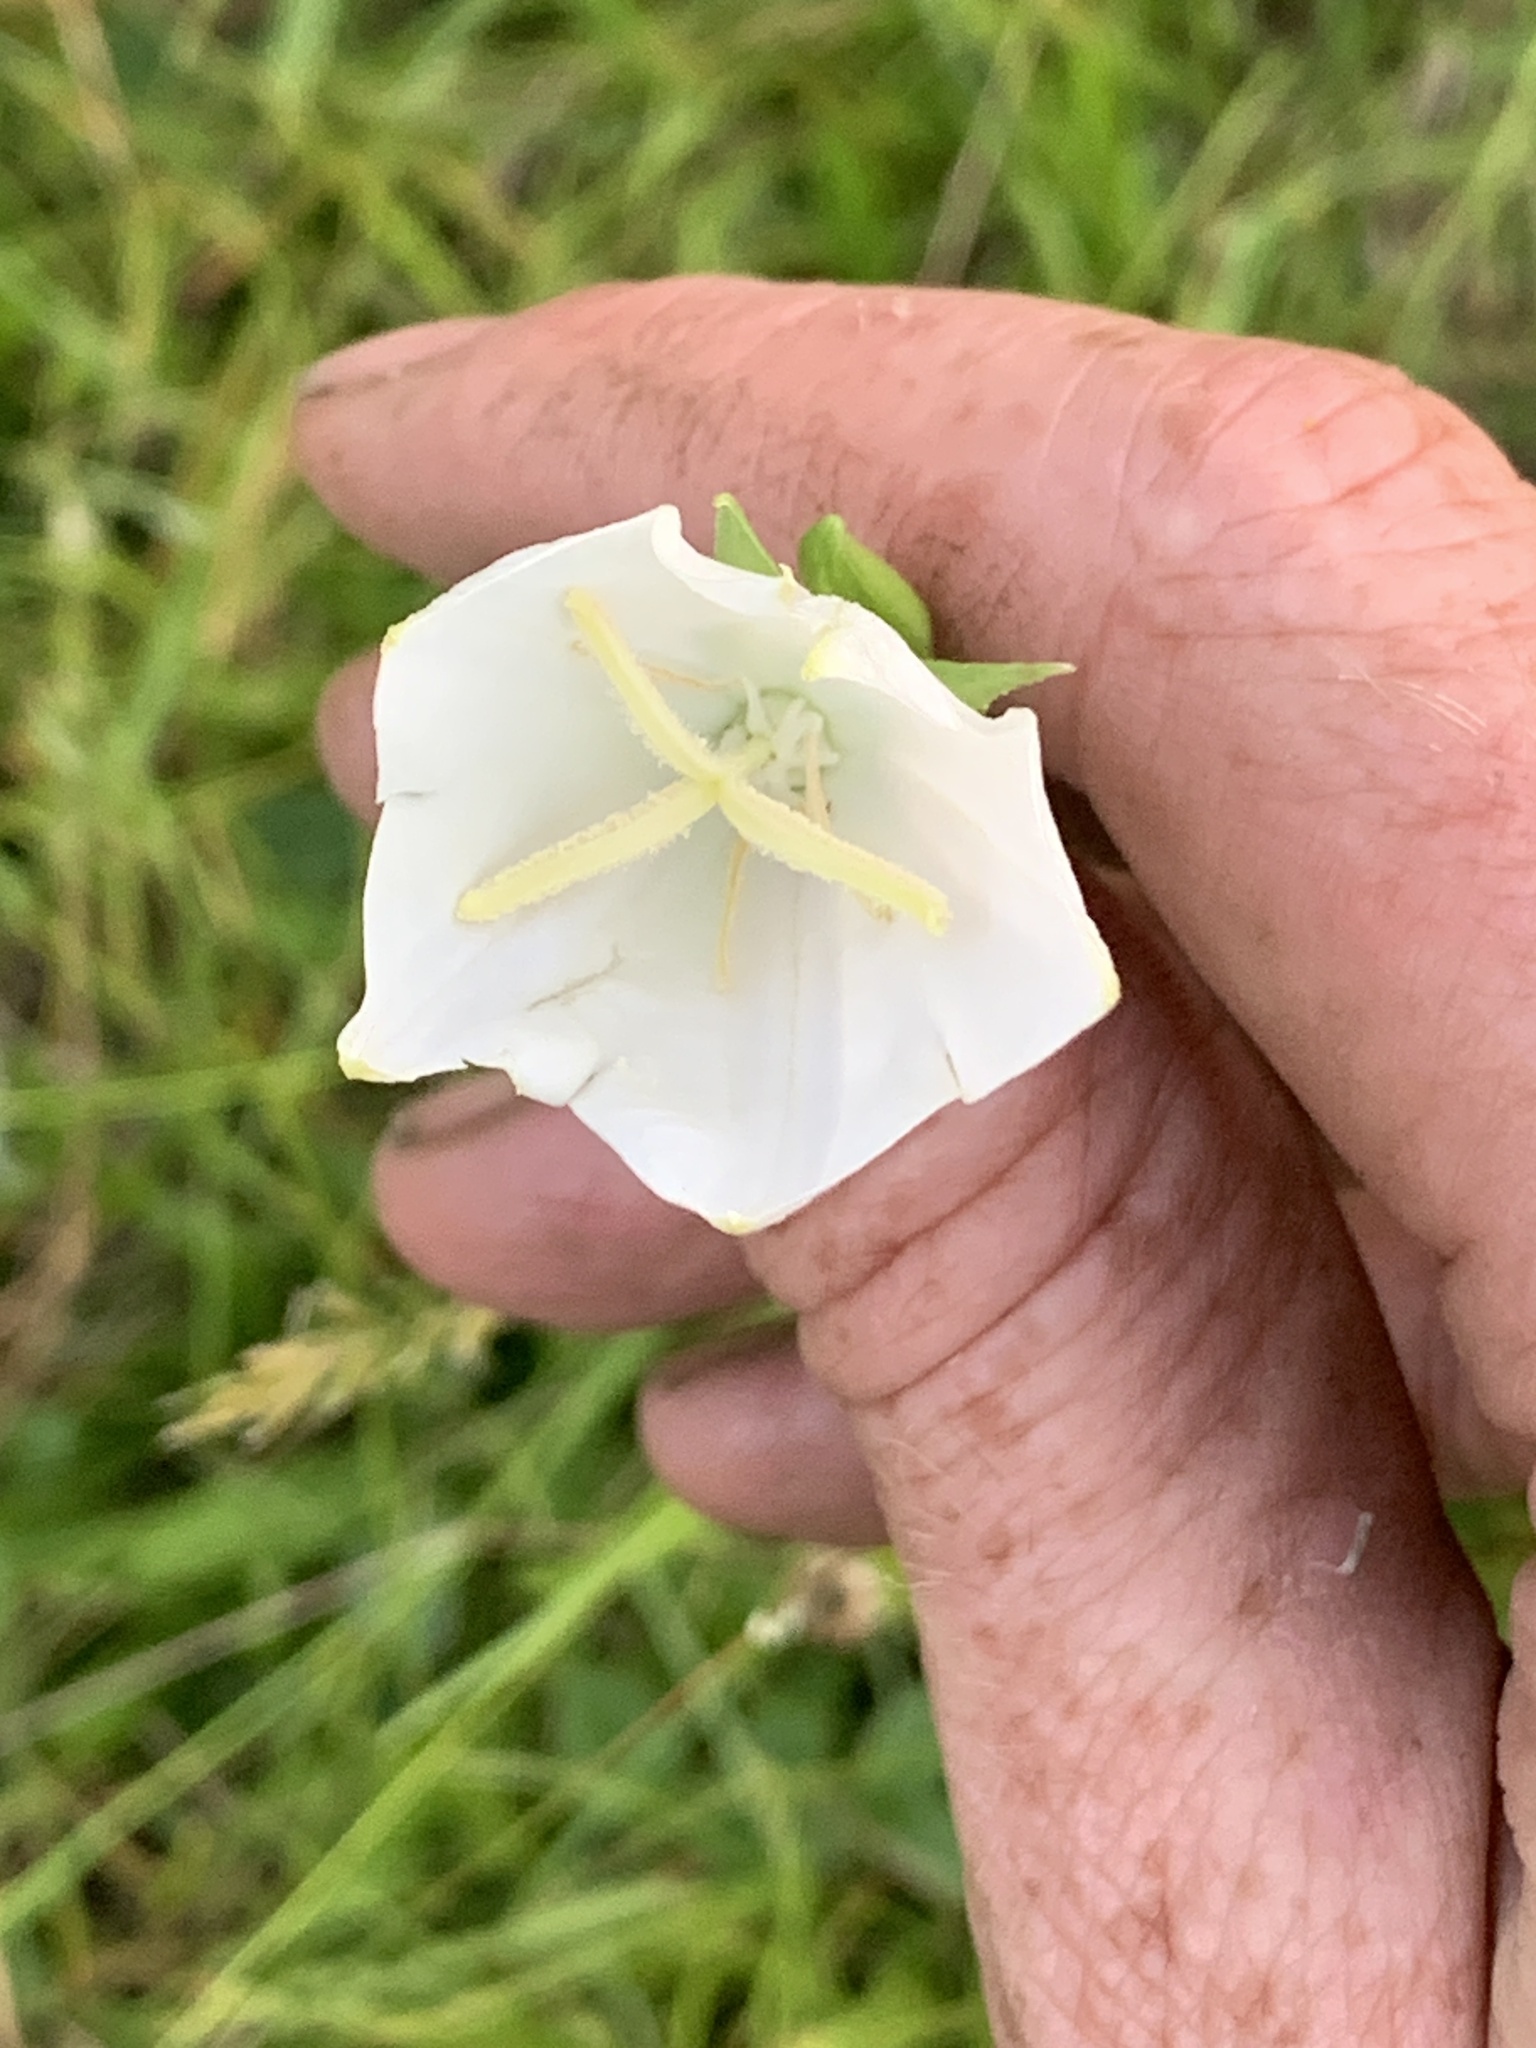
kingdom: Plantae
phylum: Tracheophyta
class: Magnoliopsida
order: Asterales
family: Campanulaceae
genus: Campanula
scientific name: Campanula persicifolia
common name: Peach-leaved bellflower
